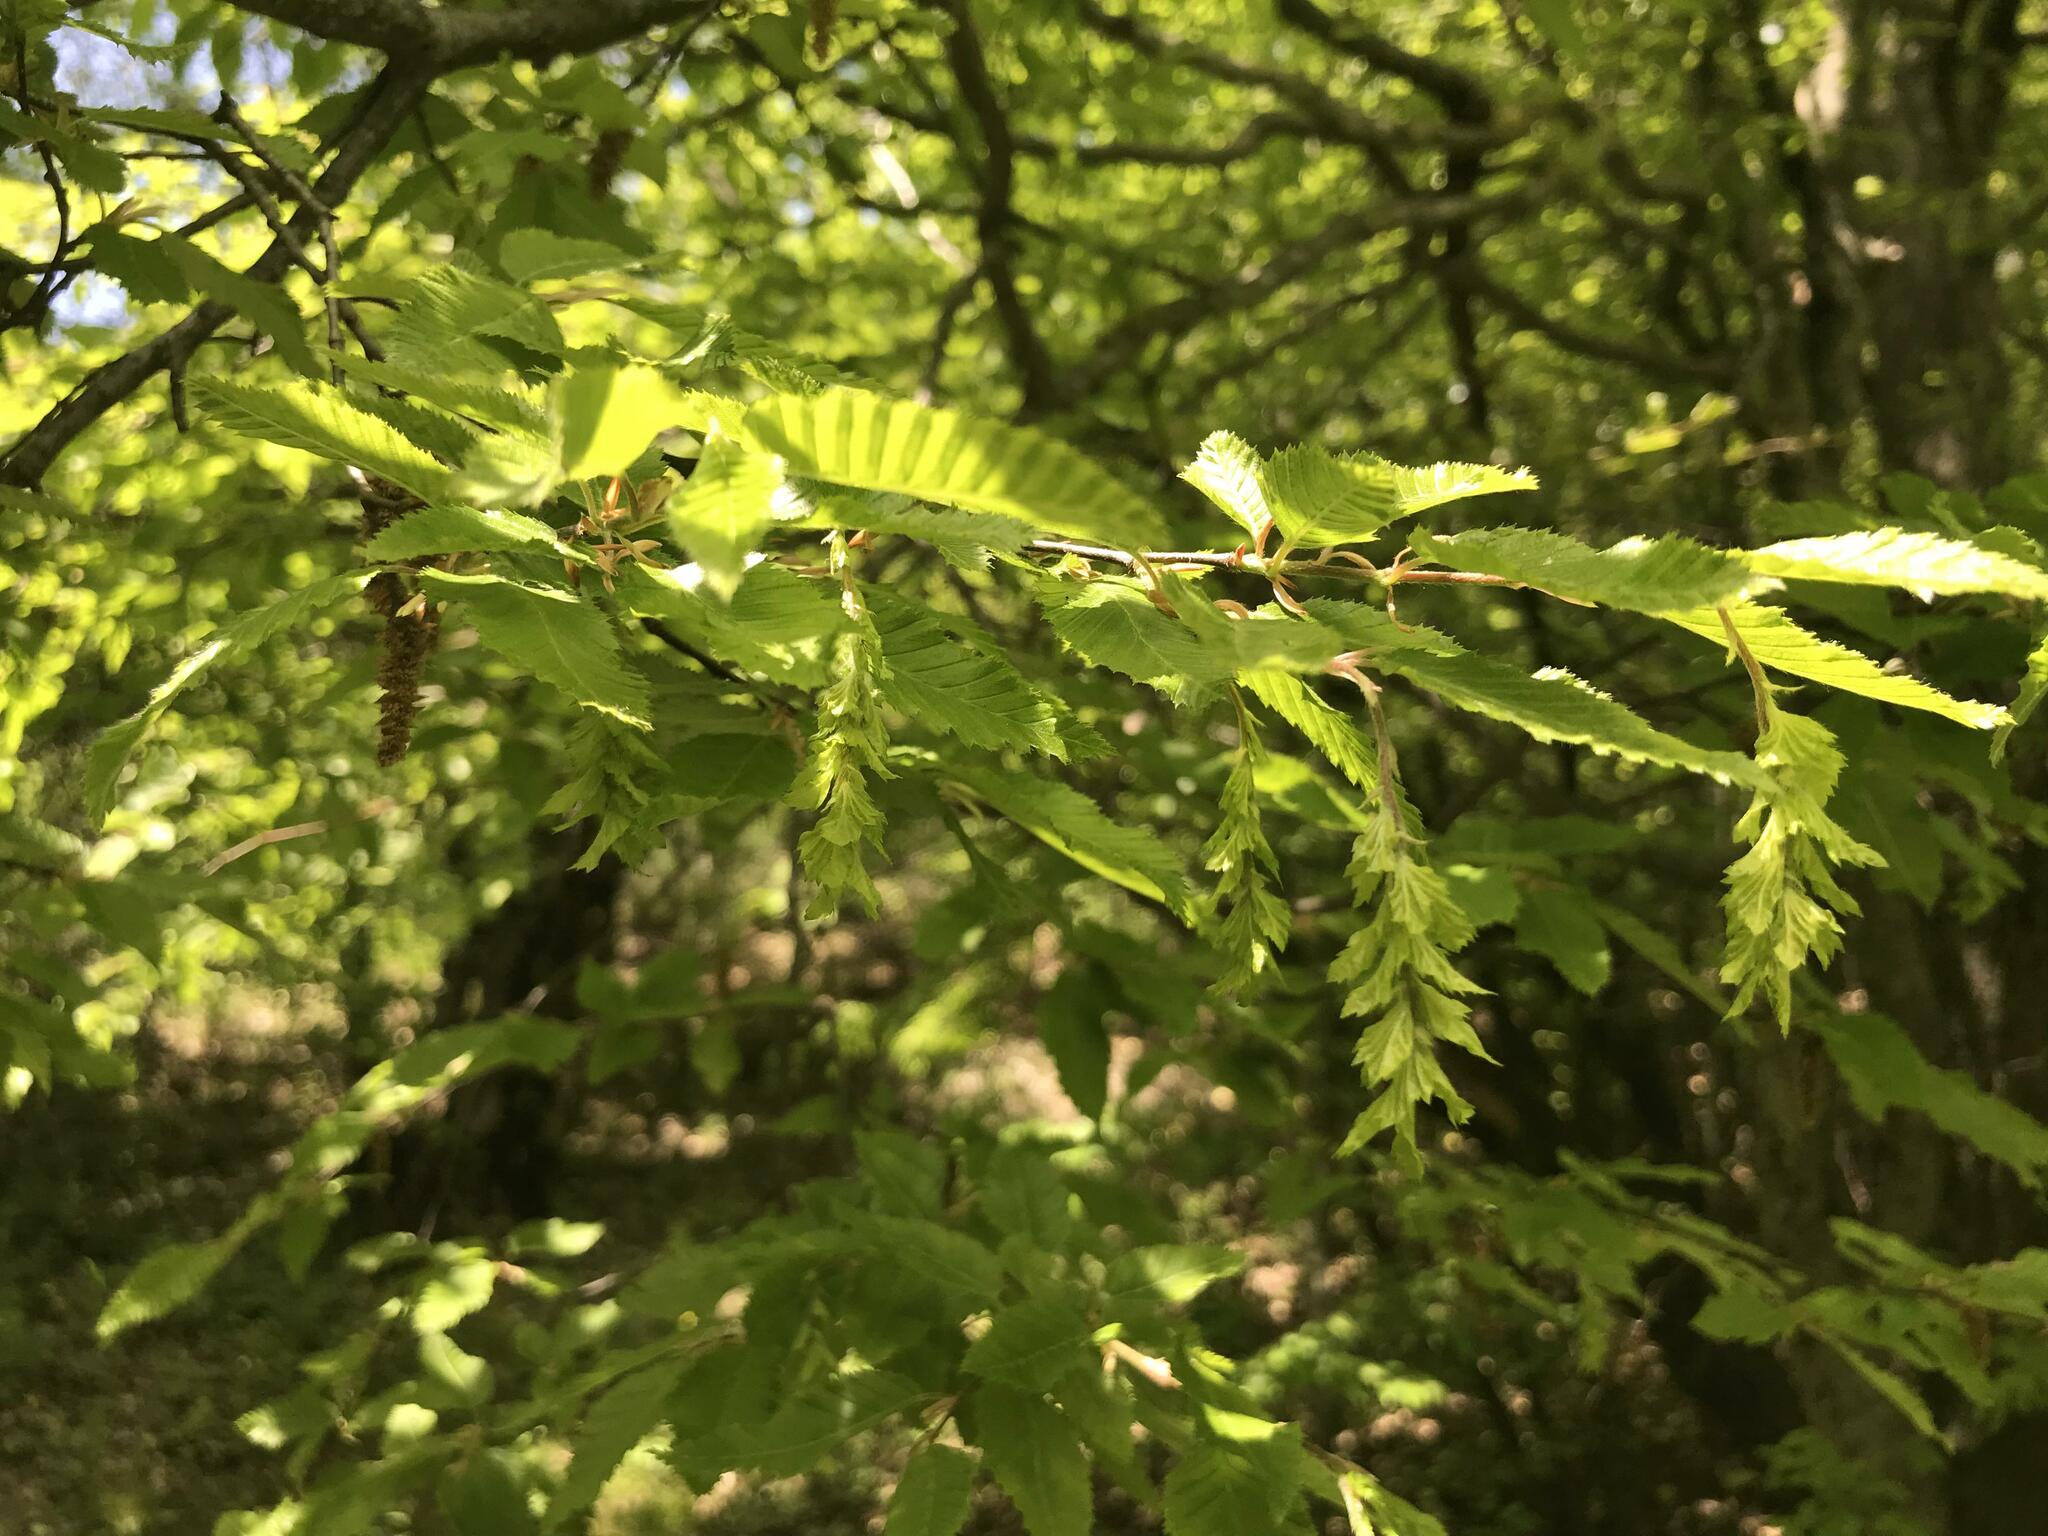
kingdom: Plantae
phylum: Tracheophyta
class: Magnoliopsida
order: Fagales
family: Betulaceae
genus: Carpinus
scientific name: Carpinus orientalis
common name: Eastern hornbeam
